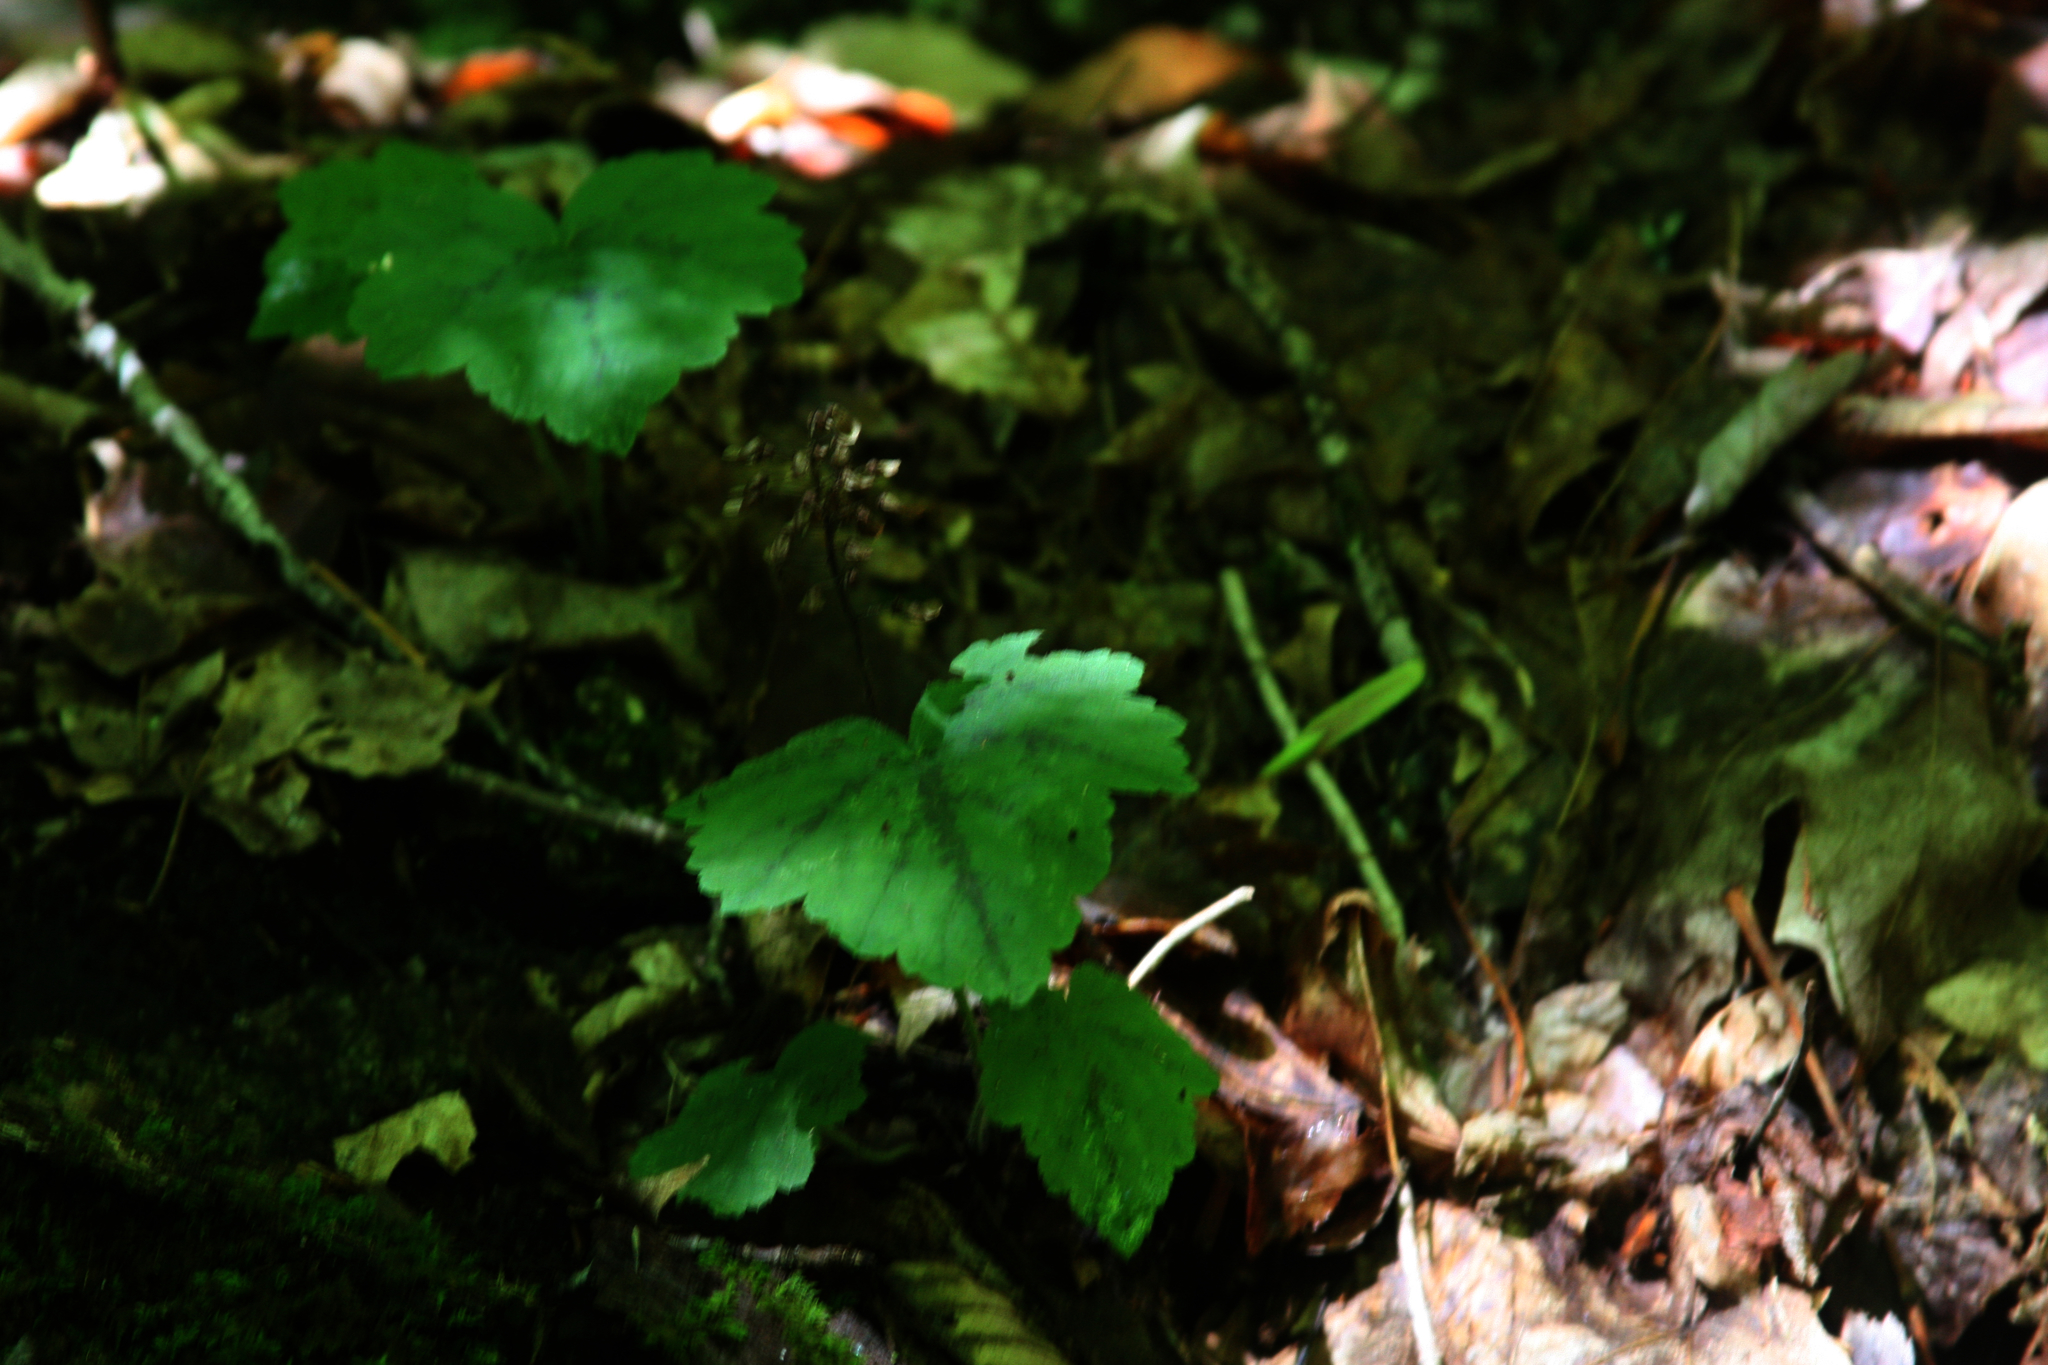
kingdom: Plantae
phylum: Tracheophyta
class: Magnoliopsida
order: Saxifragales
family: Saxifragaceae
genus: Tiarella
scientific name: Tiarella stolonifera
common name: Stoloniferous foamflower
